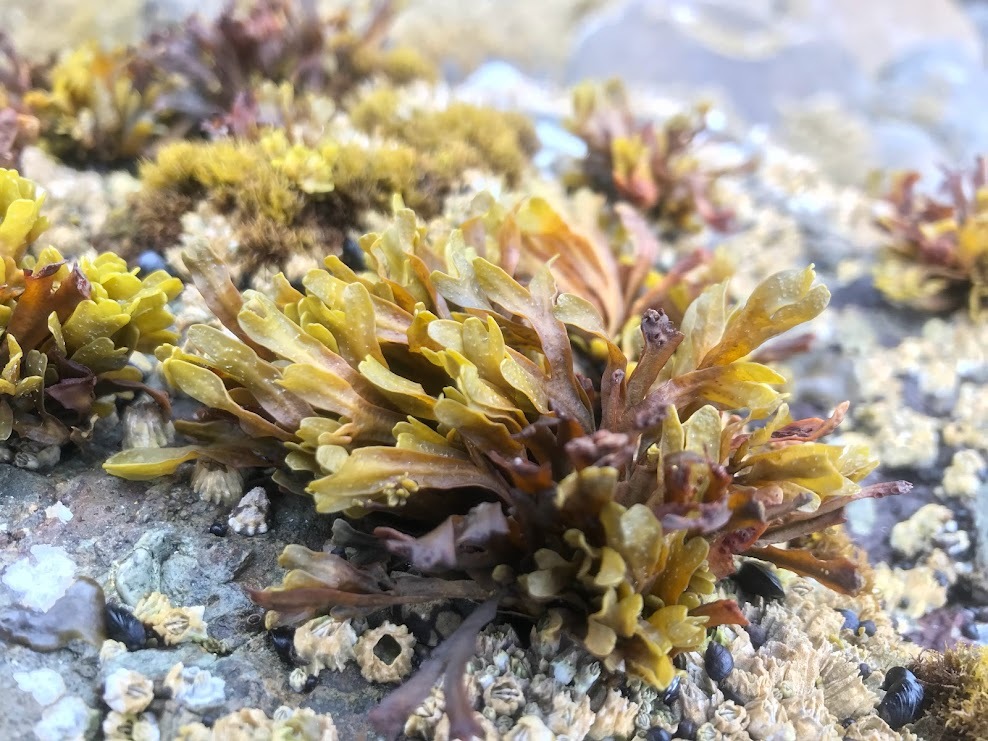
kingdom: Chromista
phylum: Ochrophyta
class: Phaeophyceae
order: Fucales
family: Fucaceae
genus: Fucus
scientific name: Fucus distichus
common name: Rockweed
